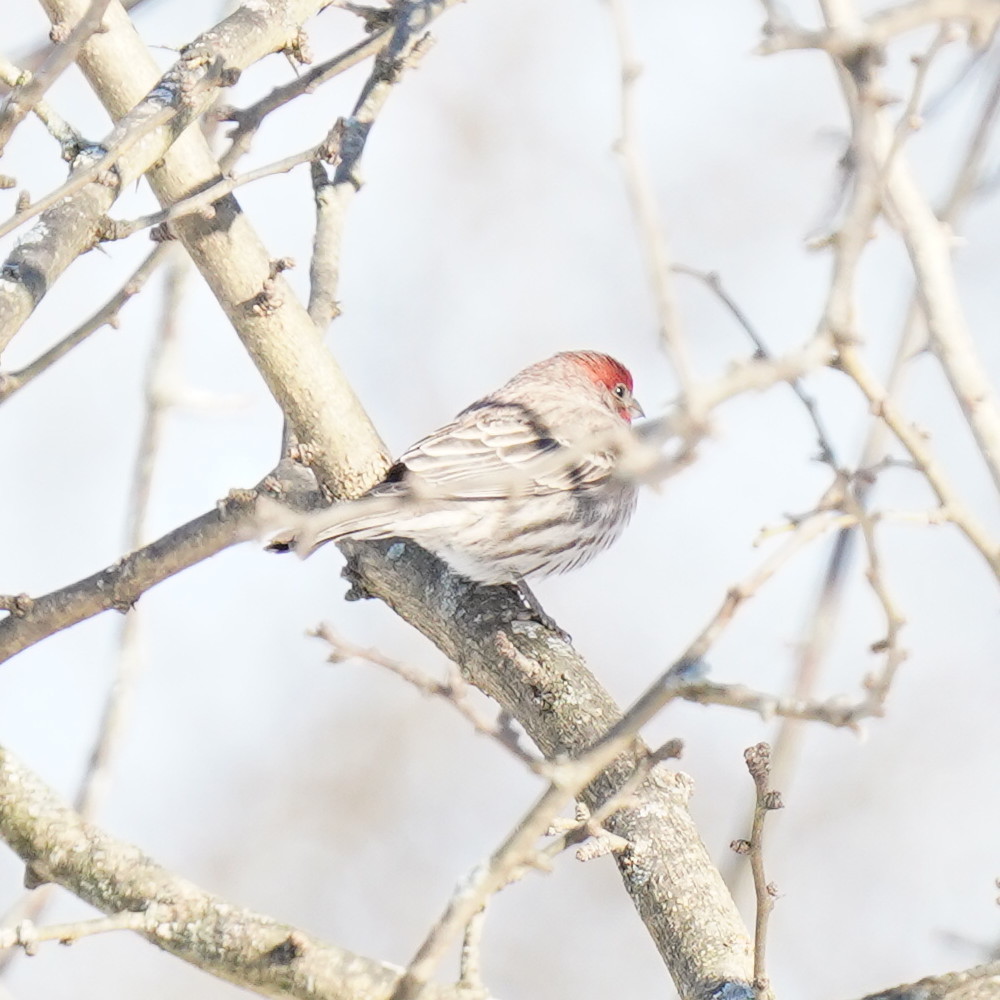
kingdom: Animalia
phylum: Chordata
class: Aves
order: Passeriformes
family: Fringillidae
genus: Haemorhous
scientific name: Haemorhous mexicanus
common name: House finch
